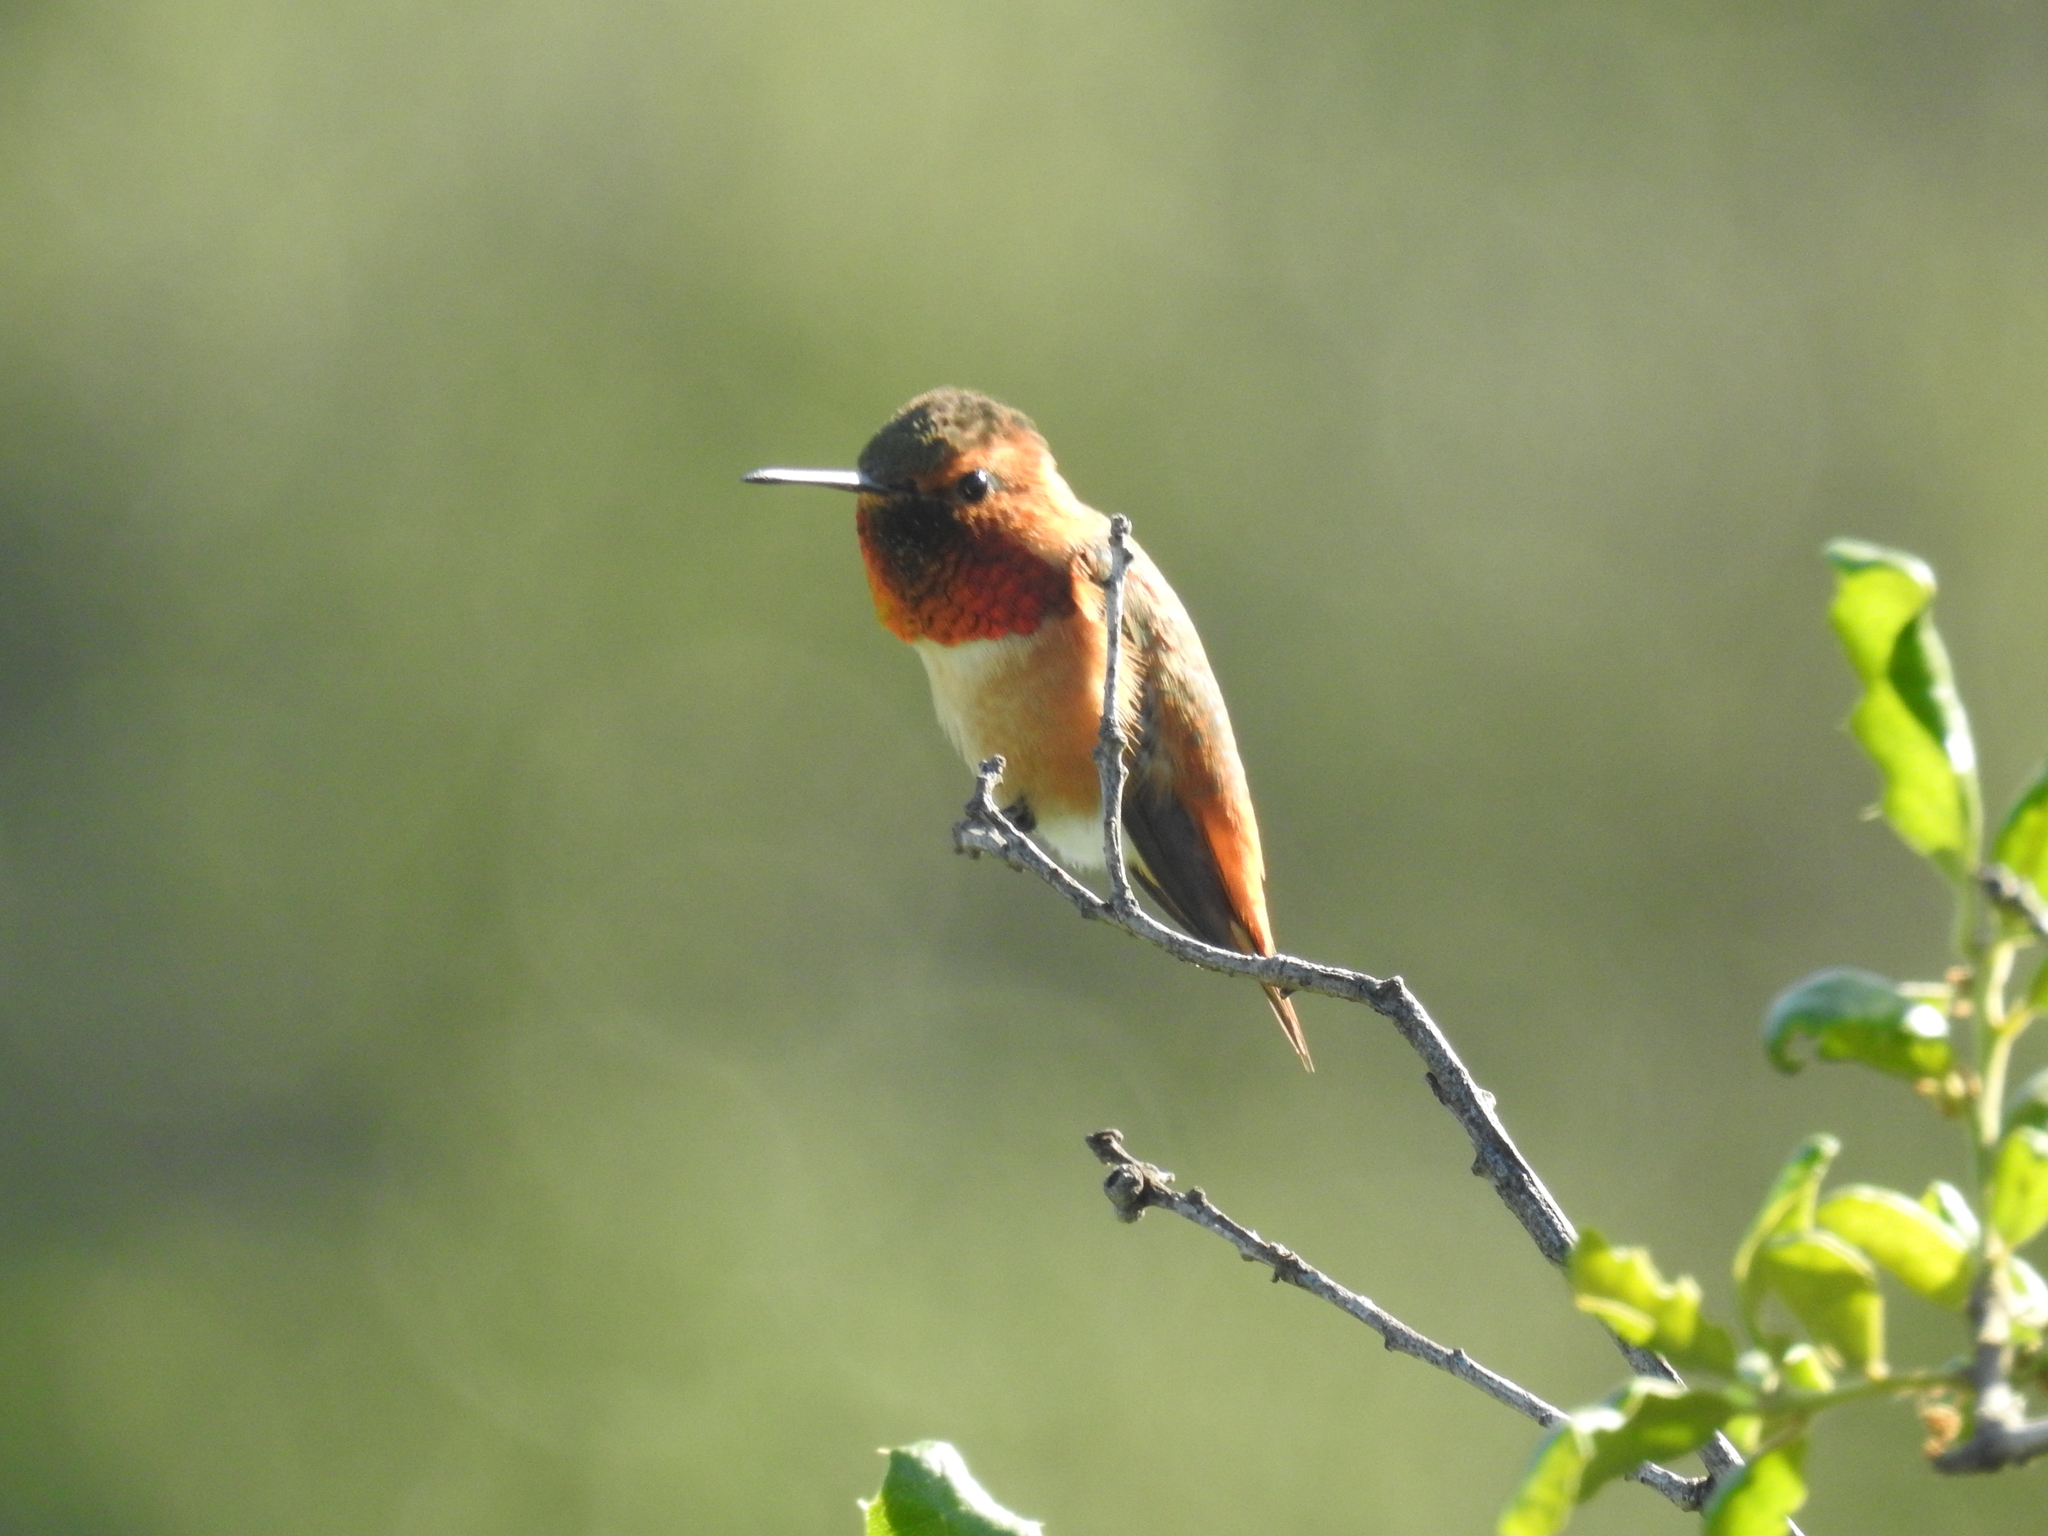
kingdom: Animalia
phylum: Chordata
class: Aves
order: Apodiformes
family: Trochilidae
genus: Selasphorus
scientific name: Selasphorus sasin
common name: Allen's hummingbird
